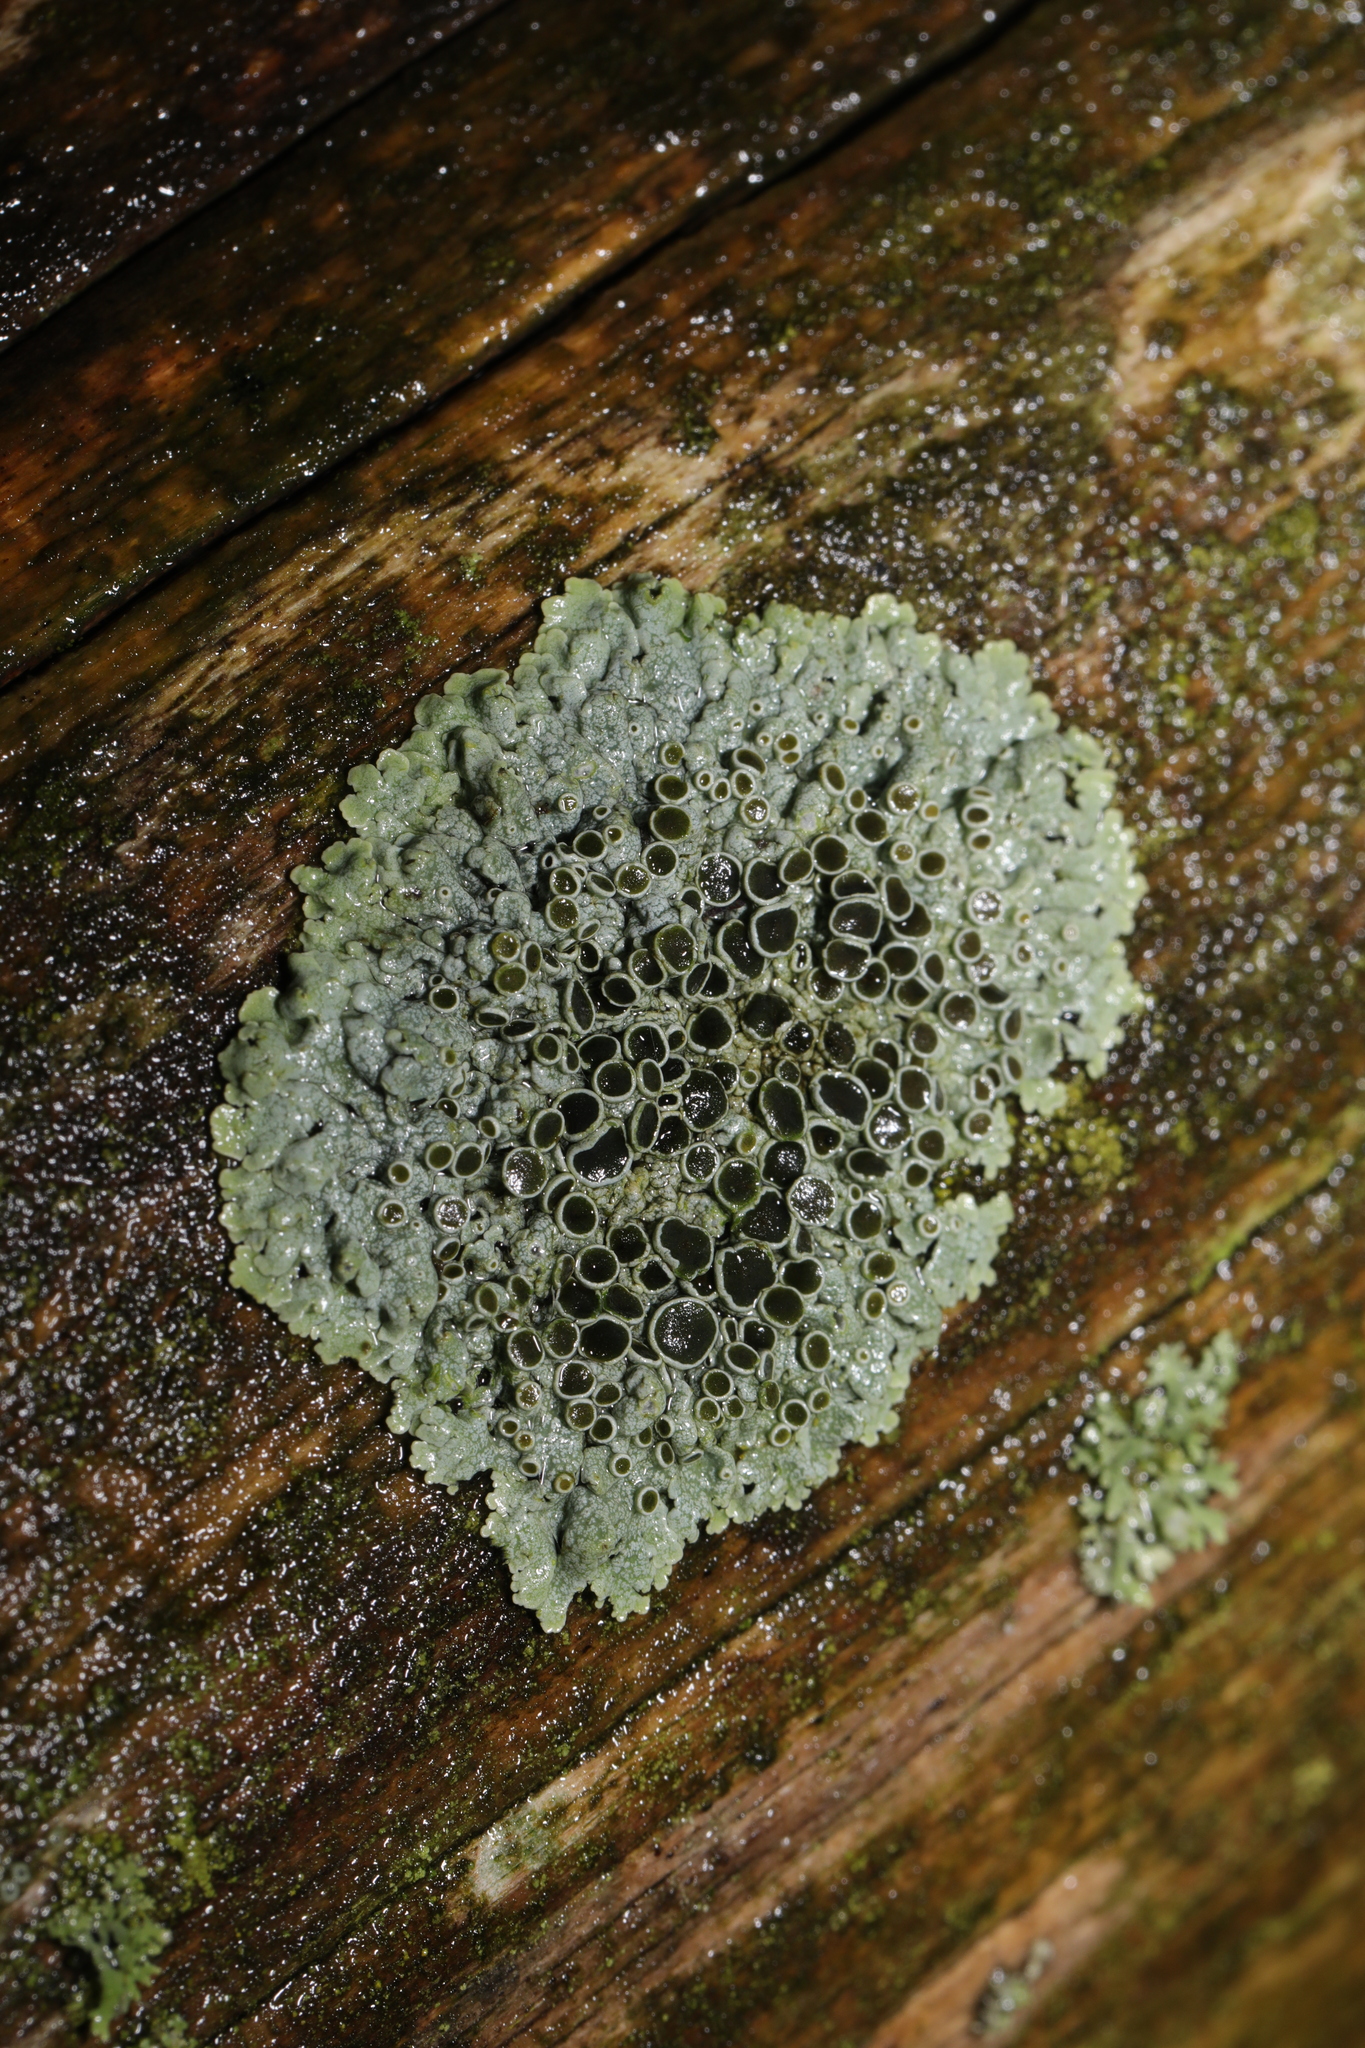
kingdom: Fungi
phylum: Ascomycota
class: Lecanoromycetes
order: Caliciales
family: Physciaceae
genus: Physcia
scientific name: Physcia aipolia
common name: Hoary rosette lichen
